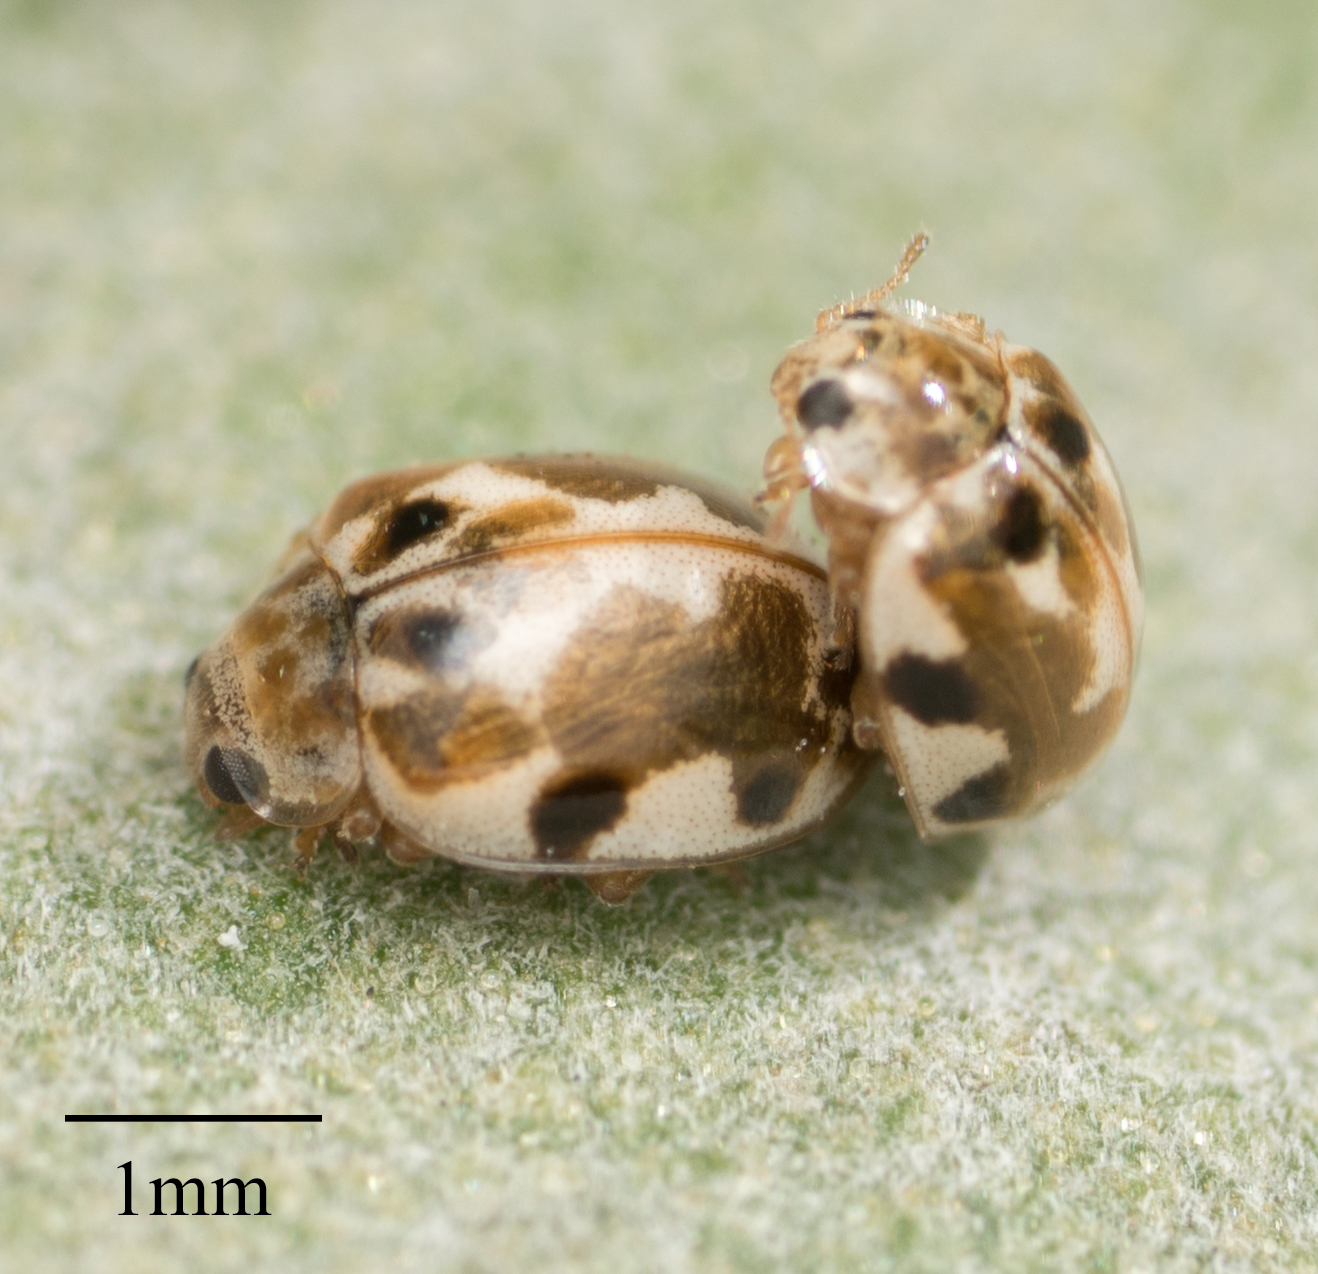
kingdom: Animalia
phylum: Arthropoda
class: Insecta
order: Coleoptera
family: Coccinellidae
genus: Psyllobora
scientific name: Psyllobora vigintimaculata
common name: Ladybird beetle
